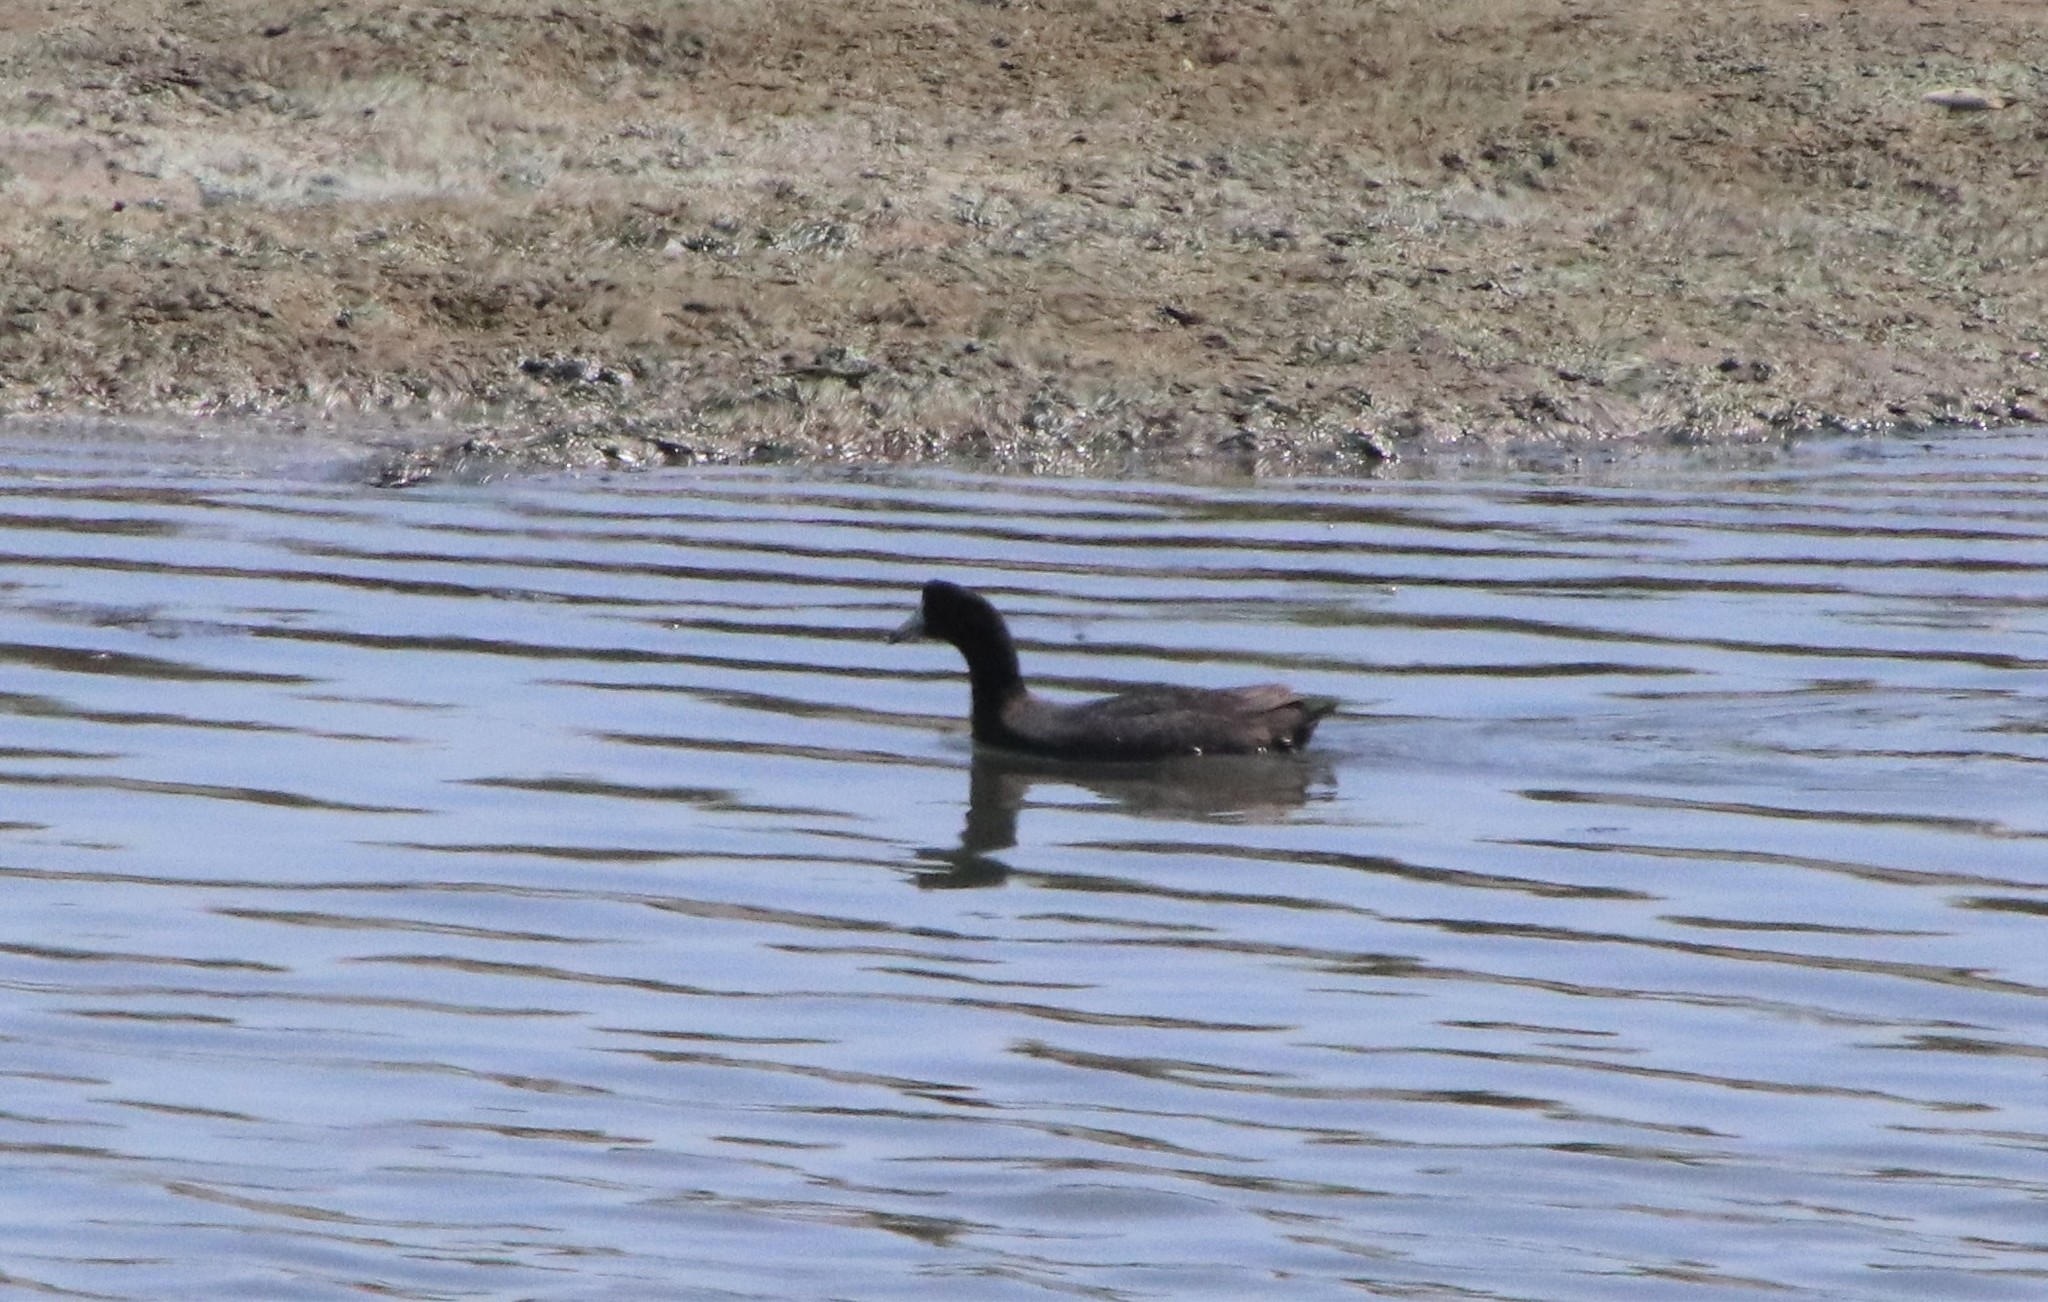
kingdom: Animalia
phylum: Chordata
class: Aves
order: Gruiformes
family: Rallidae
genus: Fulica
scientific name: Fulica americana
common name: American coot
